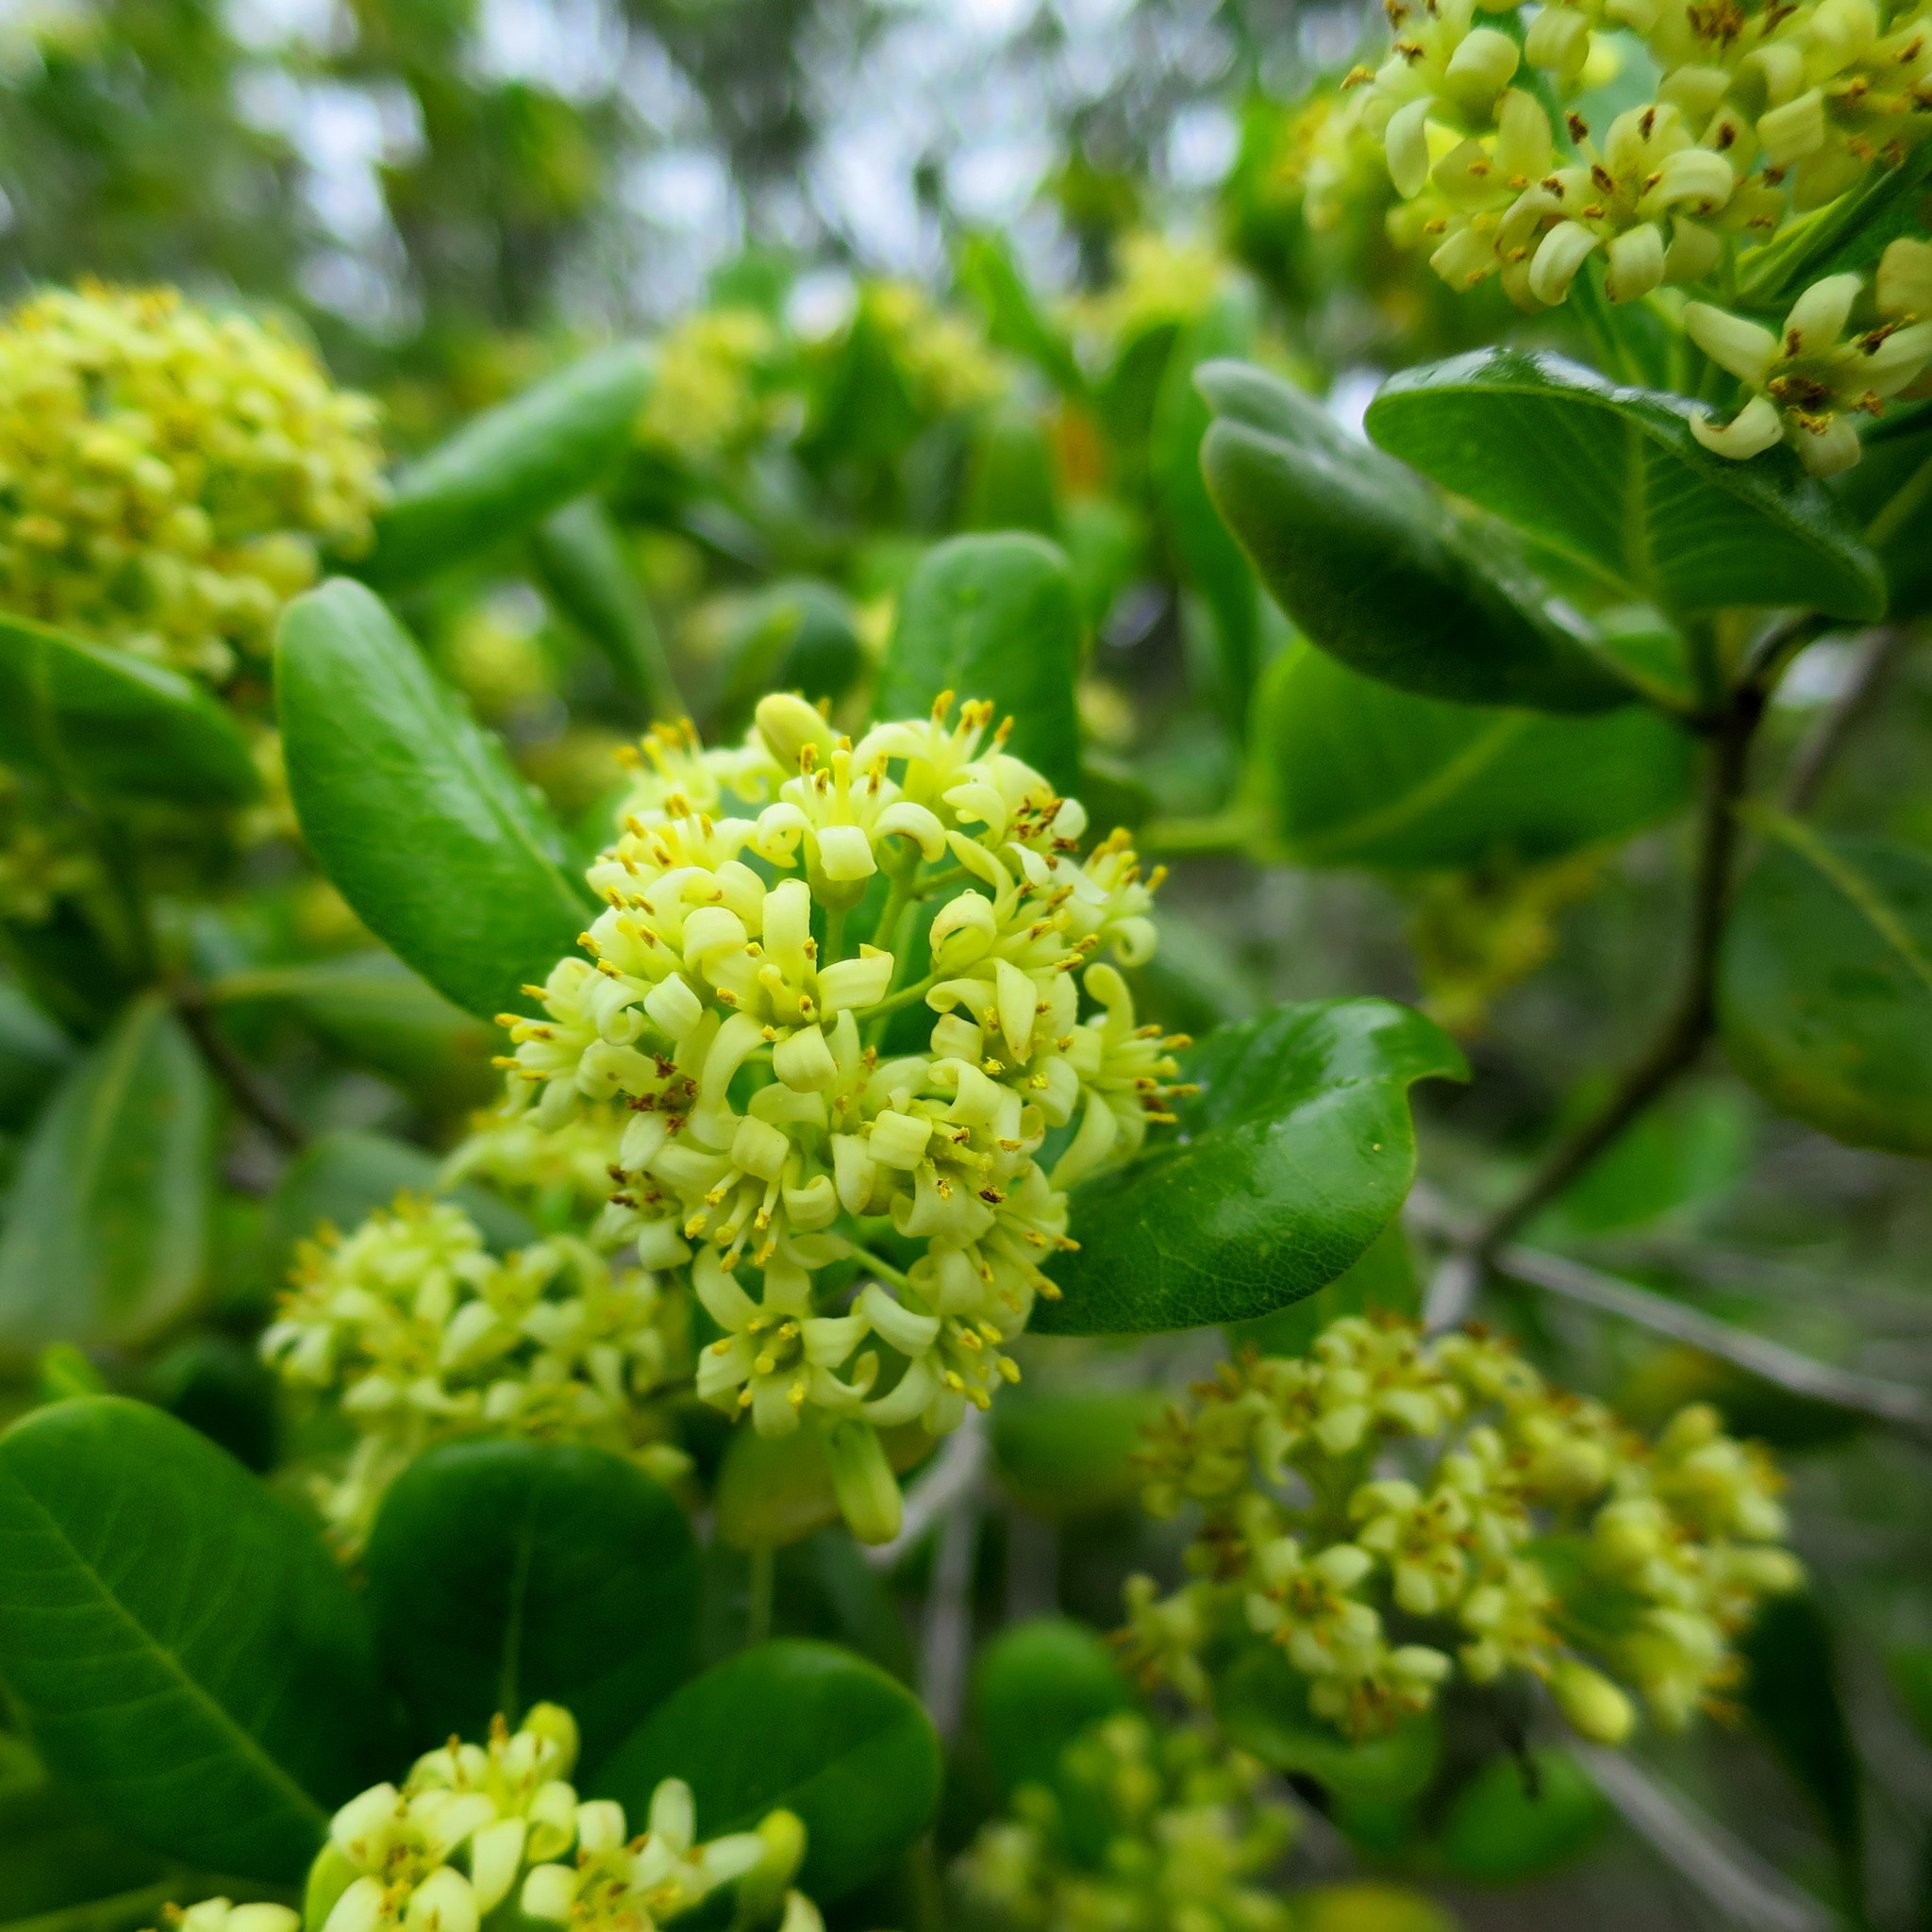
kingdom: Plantae
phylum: Tracheophyta
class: Magnoliopsida
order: Apiales
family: Pittosporaceae
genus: Pittosporum
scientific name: Pittosporum viridiflorum
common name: Cape cheesewood
